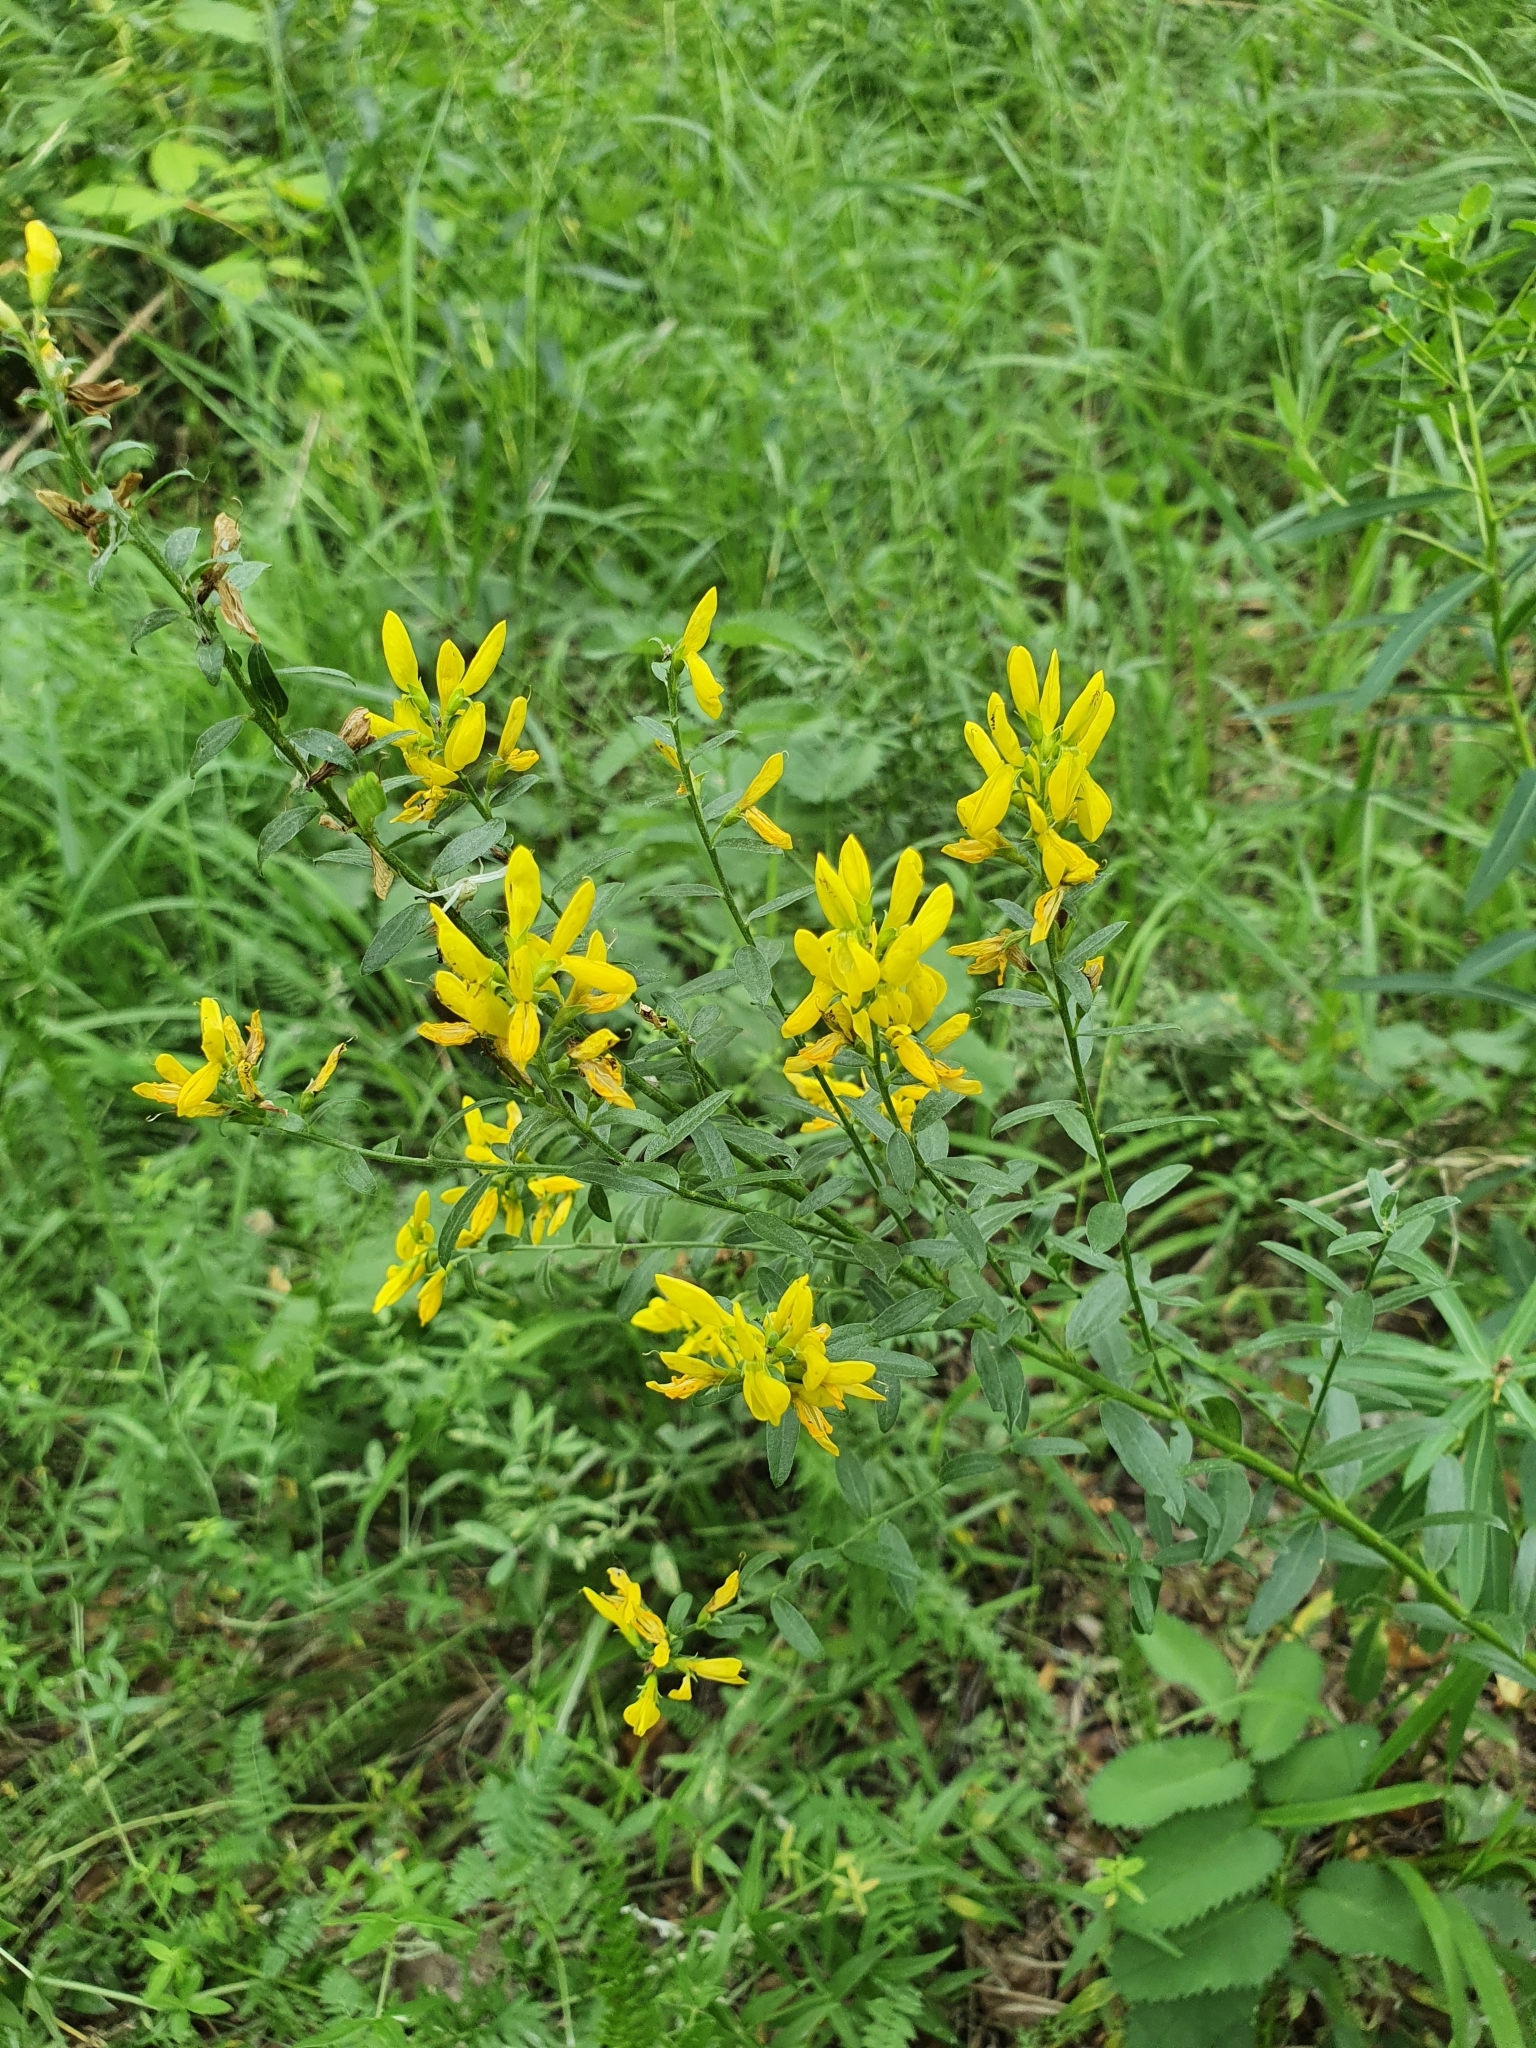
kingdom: Plantae
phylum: Tracheophyta
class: Magnoliopsida
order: Fabales
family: Fabaceae
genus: Genista
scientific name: Genista tinctoria
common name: Dyer's greenweed
